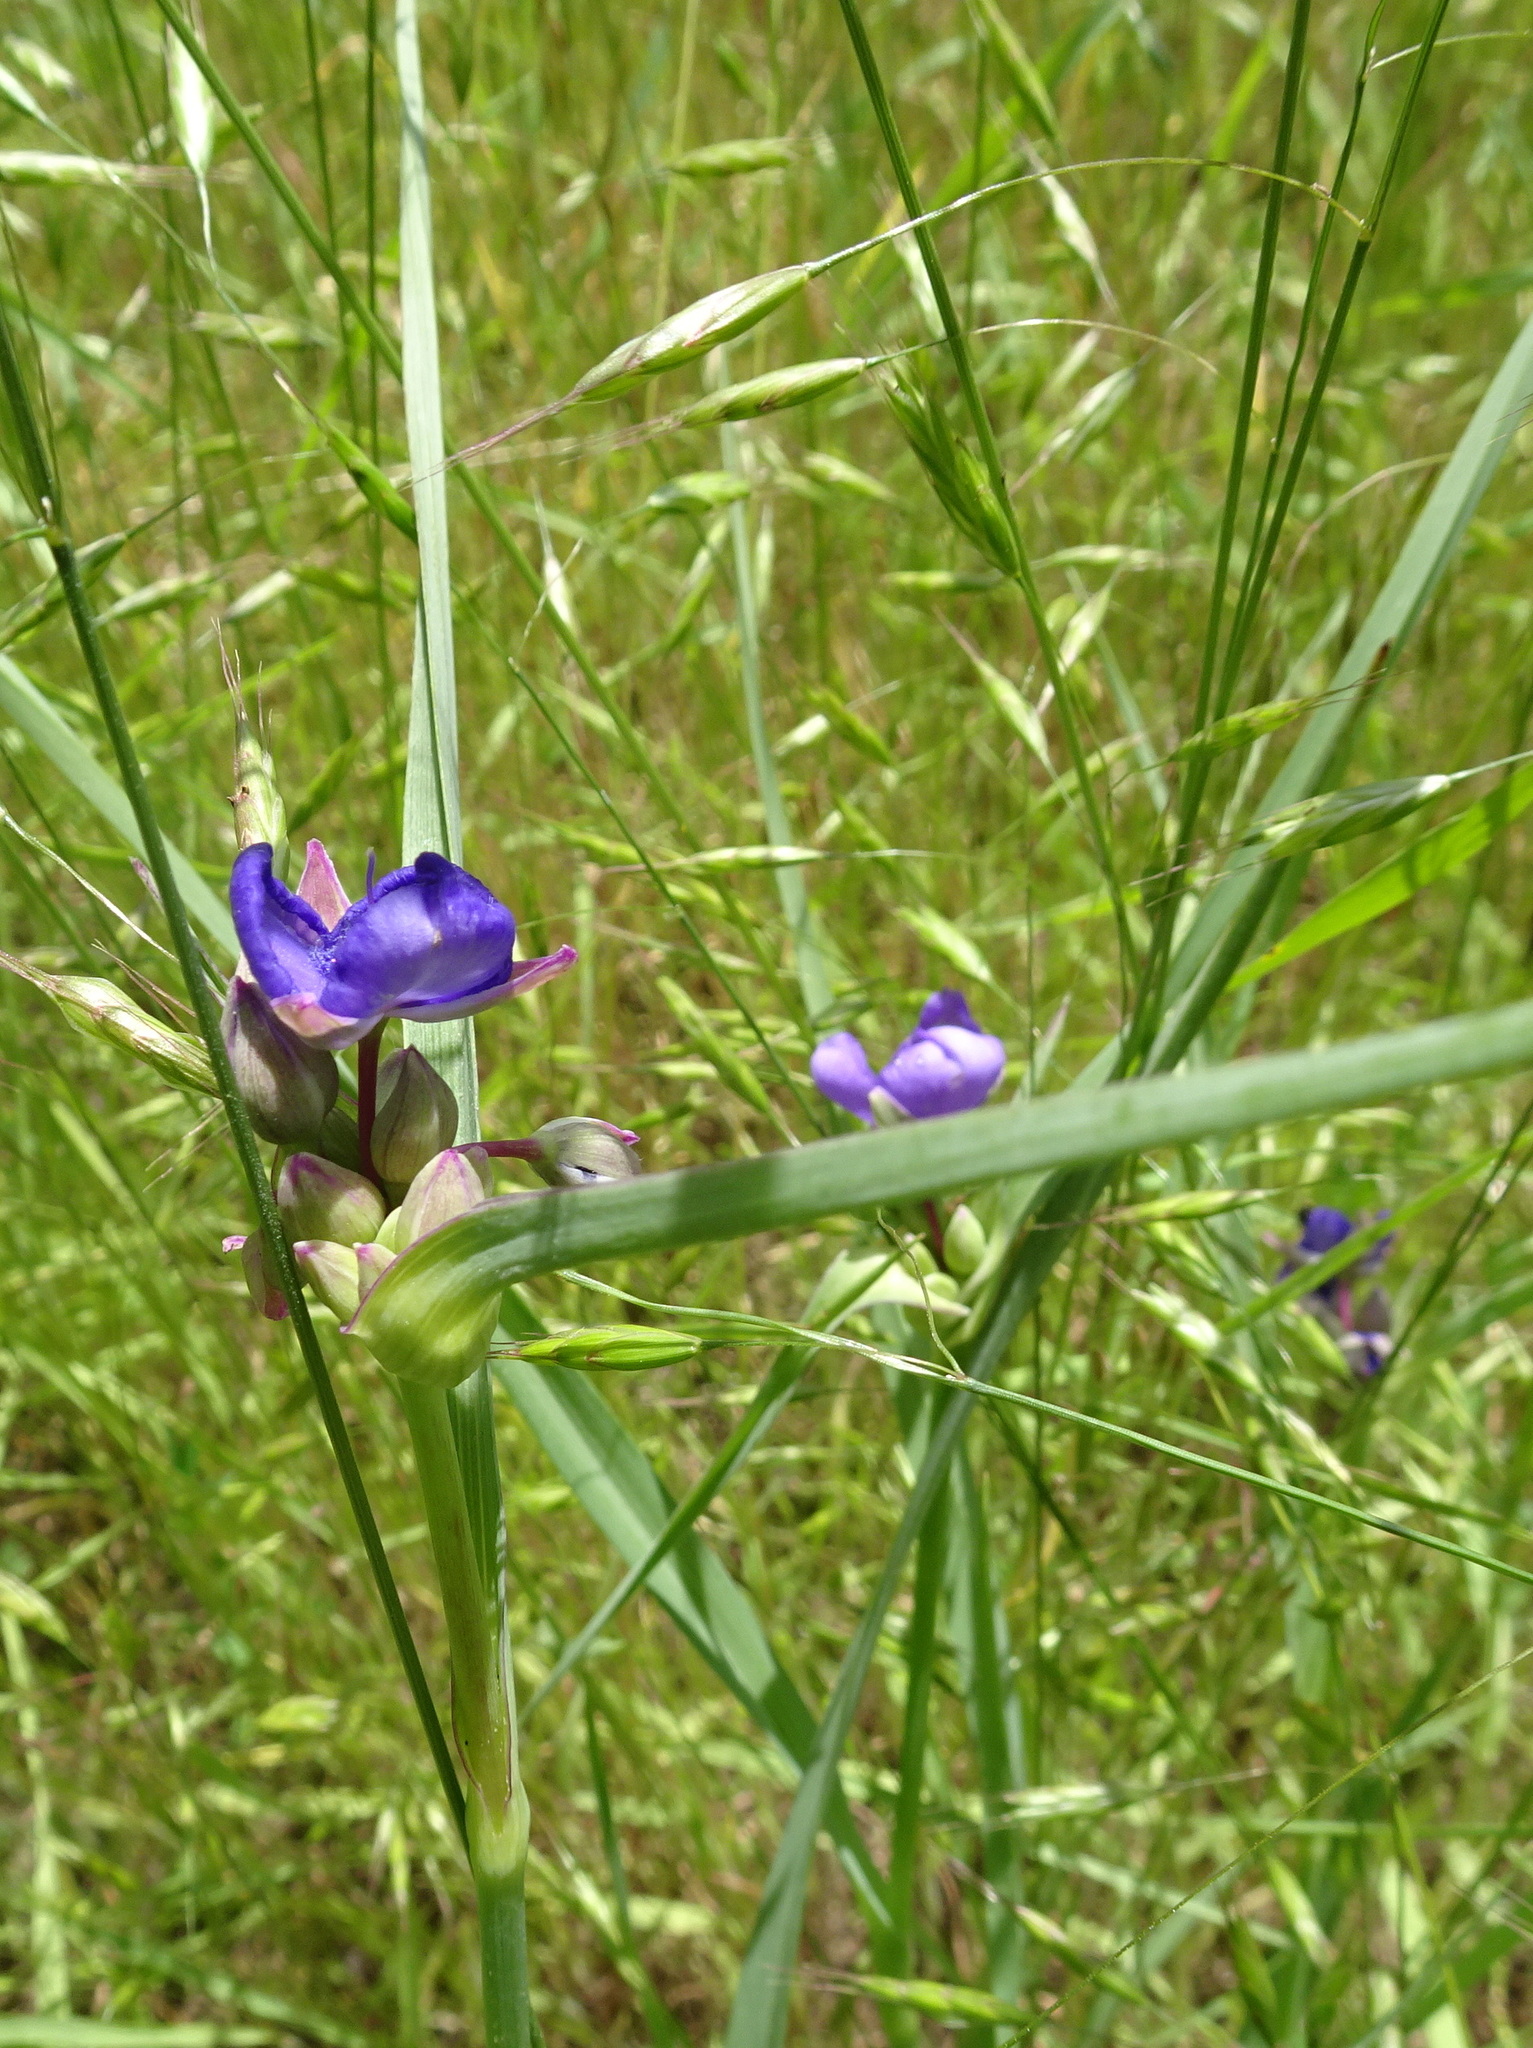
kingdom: Plantae
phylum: Tracheophyta
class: Liliopsida
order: Commelinales
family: Commelinaceae
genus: Tradescantia
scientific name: Tradescantia ohiensis
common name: Ohio spiderwort
